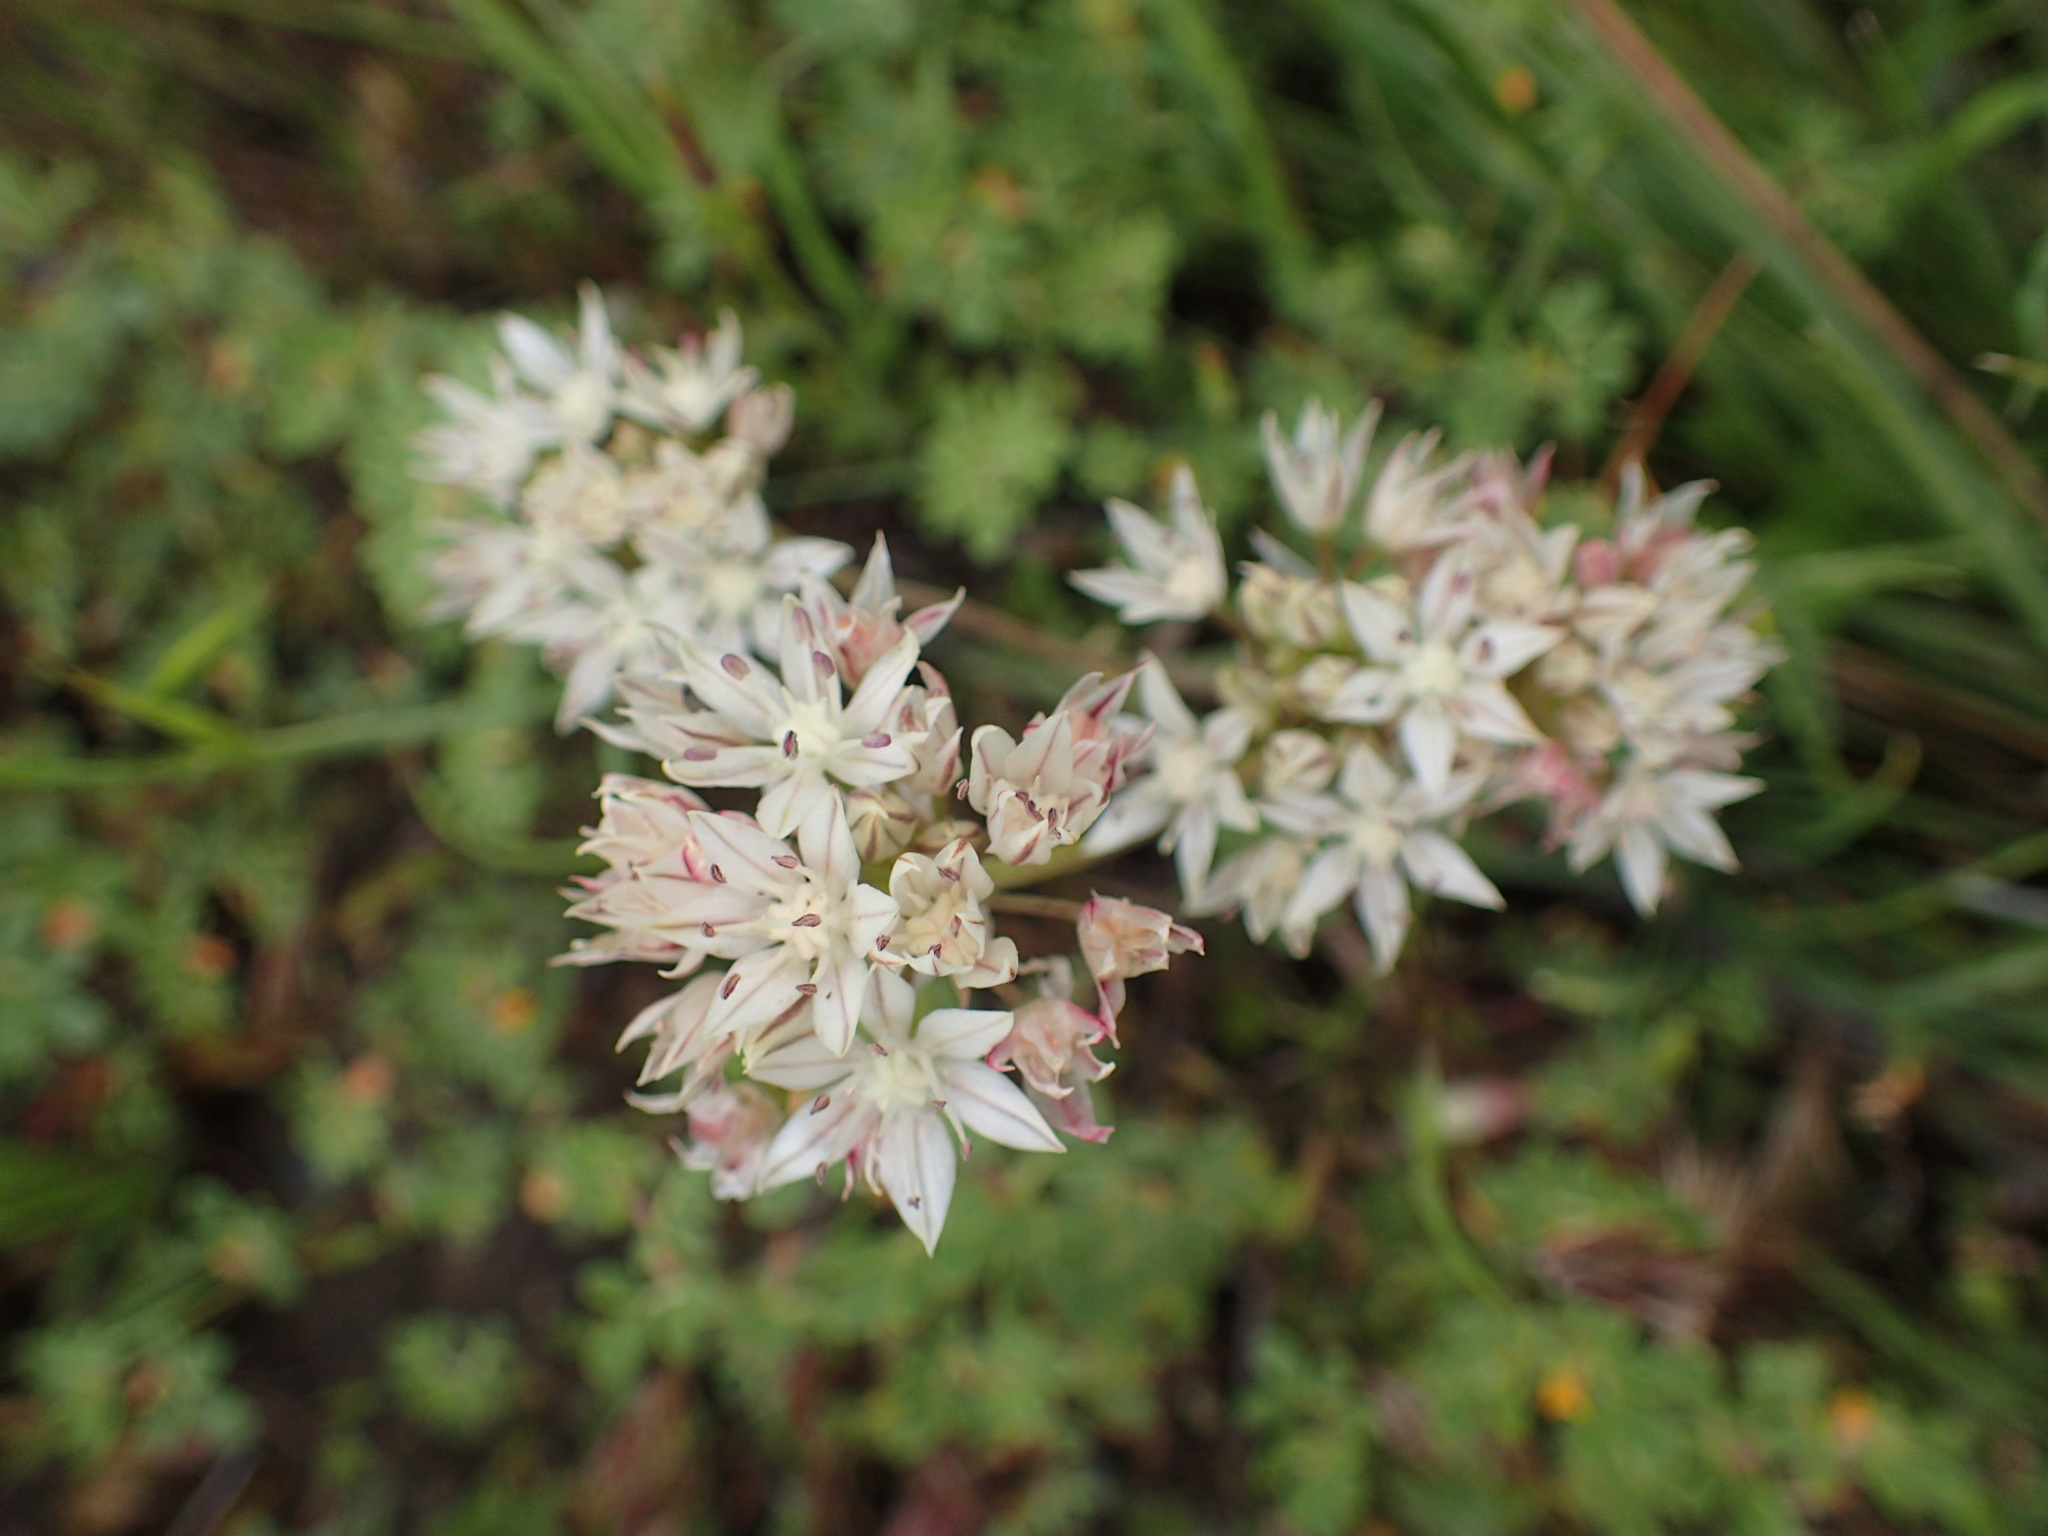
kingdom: Plantae
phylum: Tracheophyta
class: Liliopsida
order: Asparagales
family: Amaryllidaceae
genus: Allium
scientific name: Allium haematochiton
